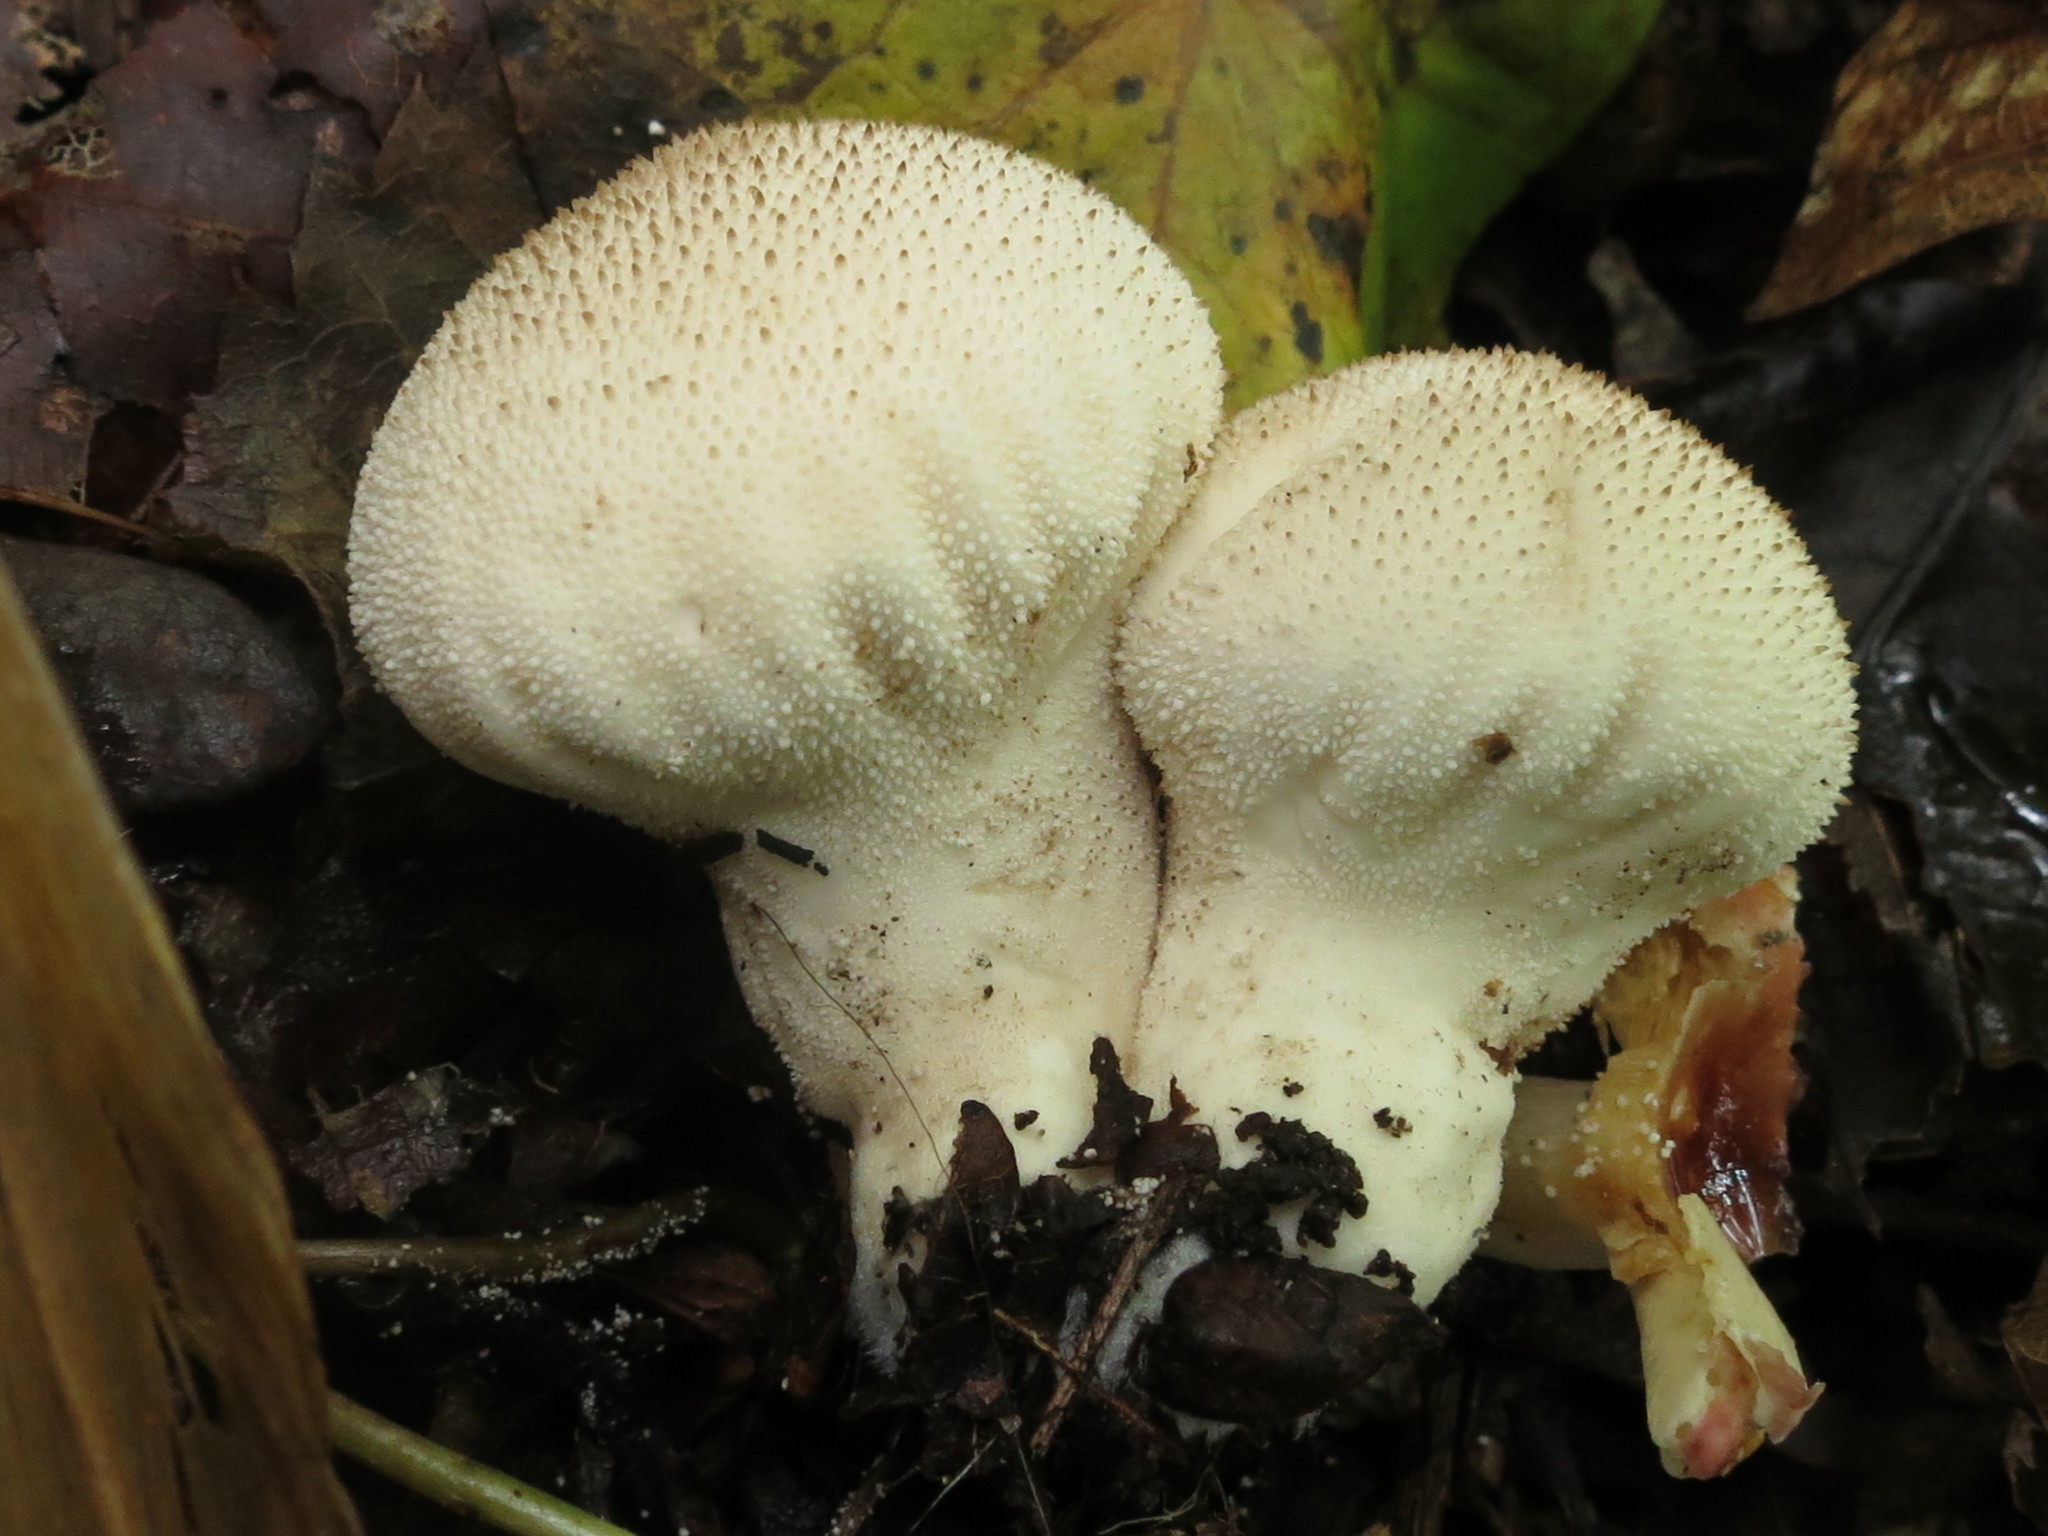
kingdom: Fungi
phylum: Basidiomycota
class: Agaricomycetes
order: Agaricales
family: Lycoperdaceae
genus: Lycoperdon
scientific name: Lycoperdon perlatum
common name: Common puffball
